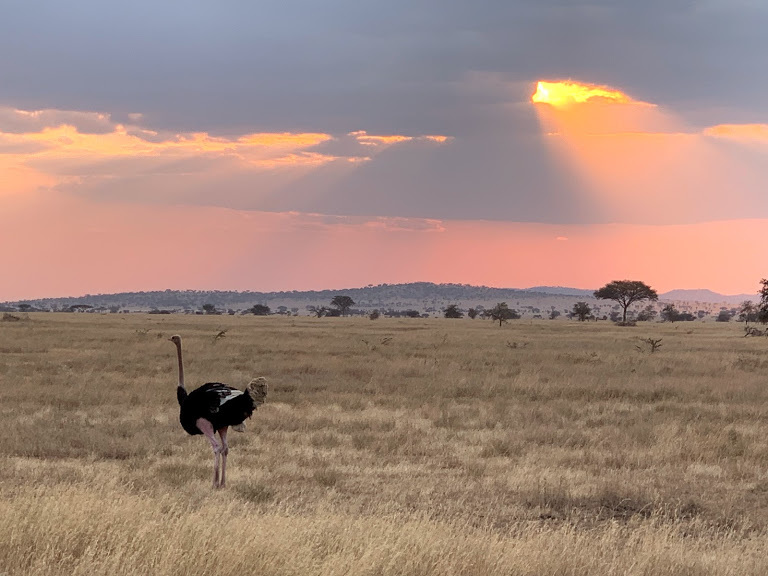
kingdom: Animalia
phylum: Chordata
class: Aves
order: Struthioniformes
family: Struthionidae
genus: Struthio
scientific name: Struthio camelus
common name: Common ostrich
